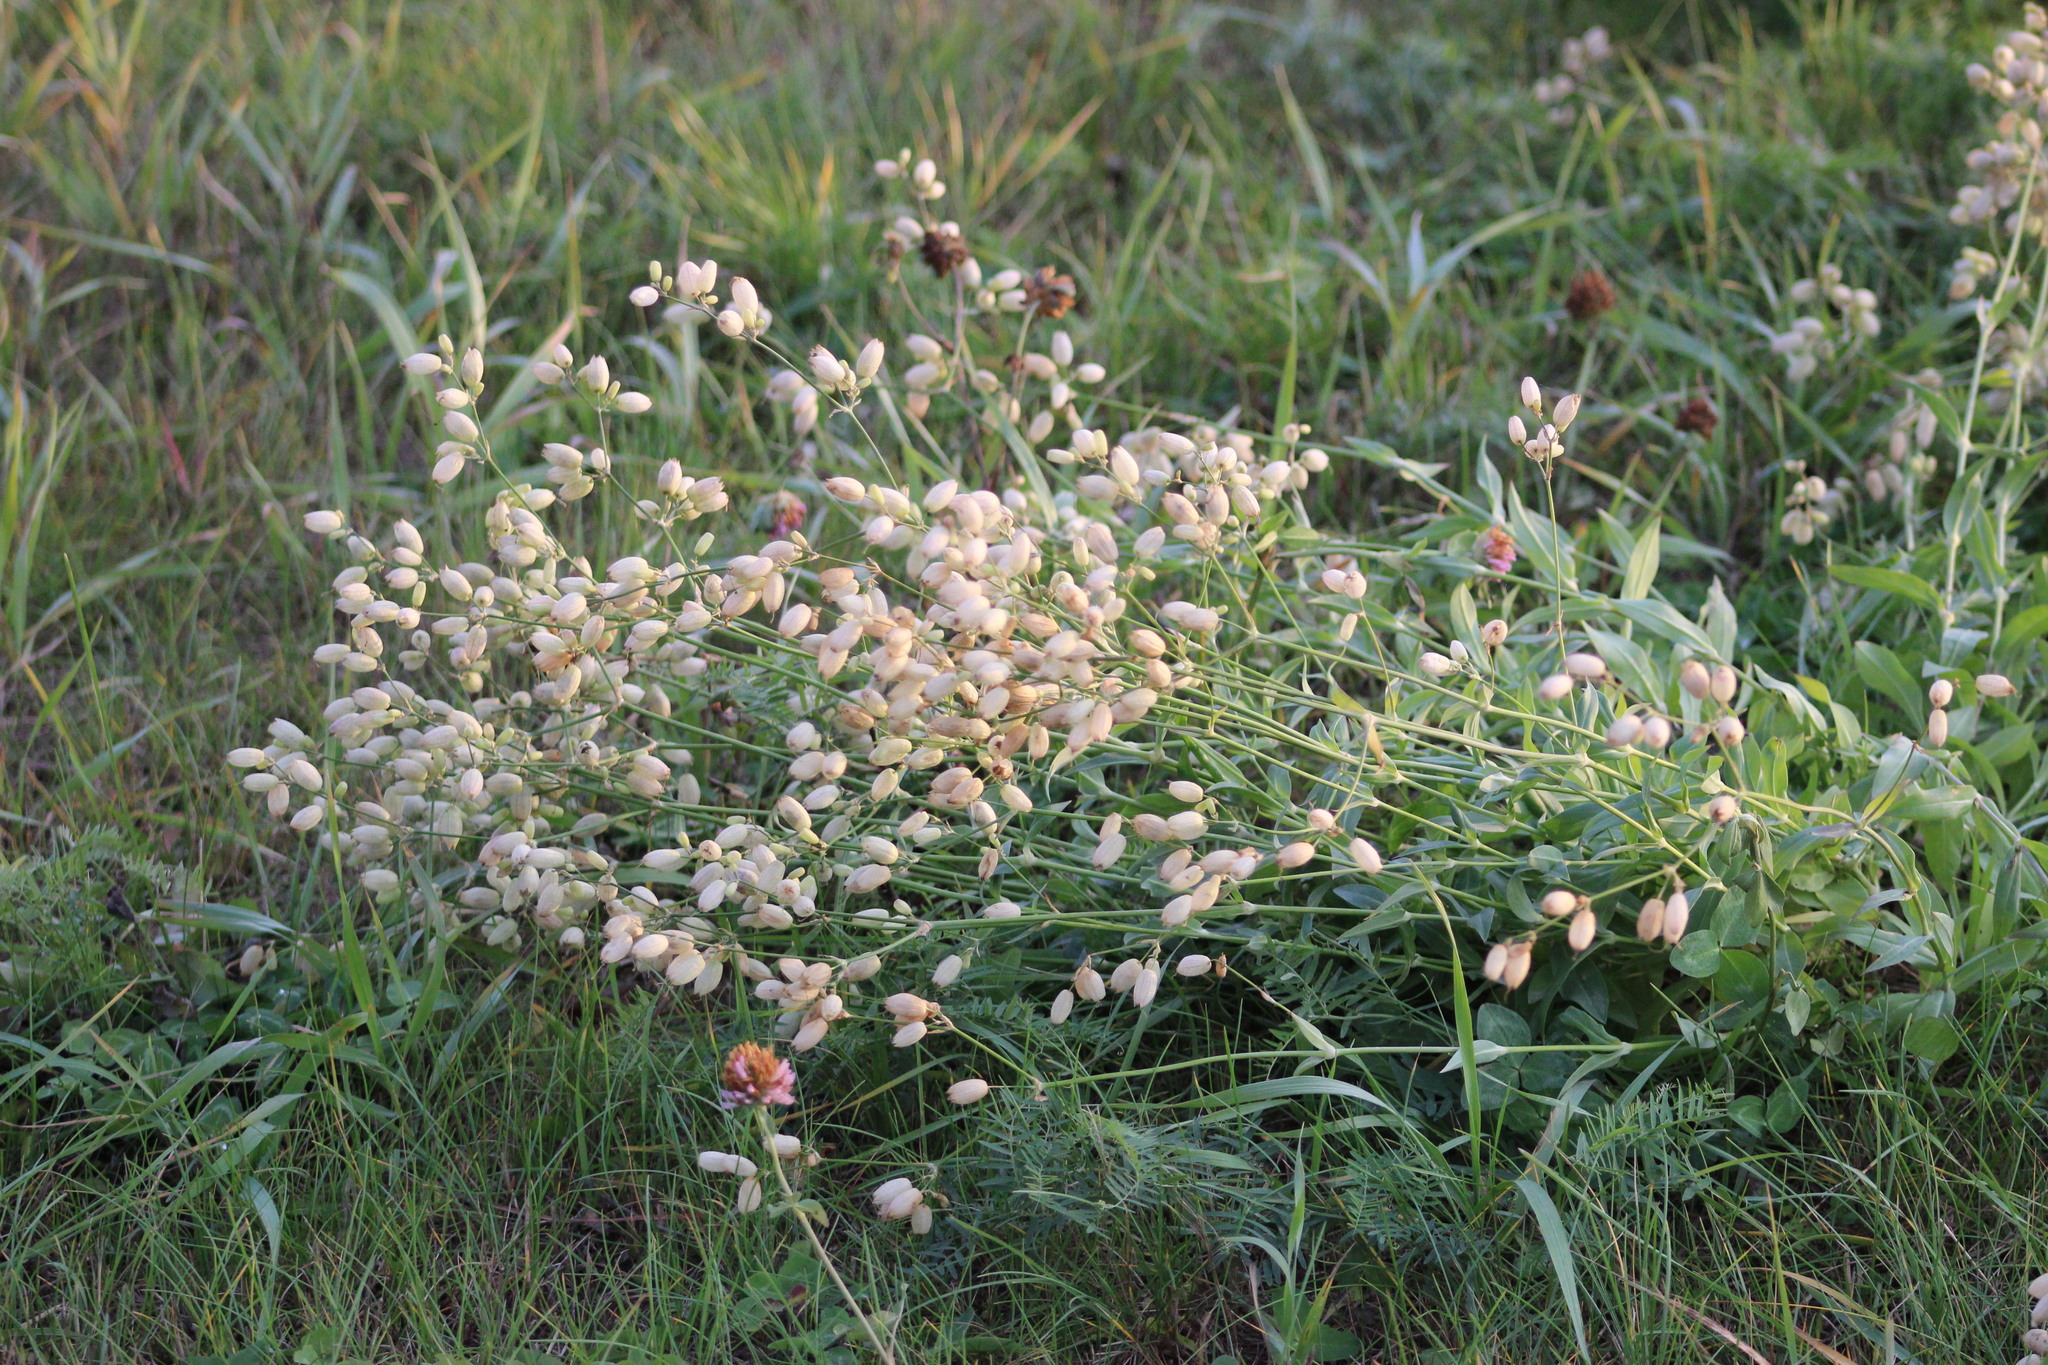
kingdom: Plantae
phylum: Tracheophyta
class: Magnoliopsida
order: Caryophyllales
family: Caryophyllaceae
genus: Silene
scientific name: Silene vulgaris
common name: Bladder campion
